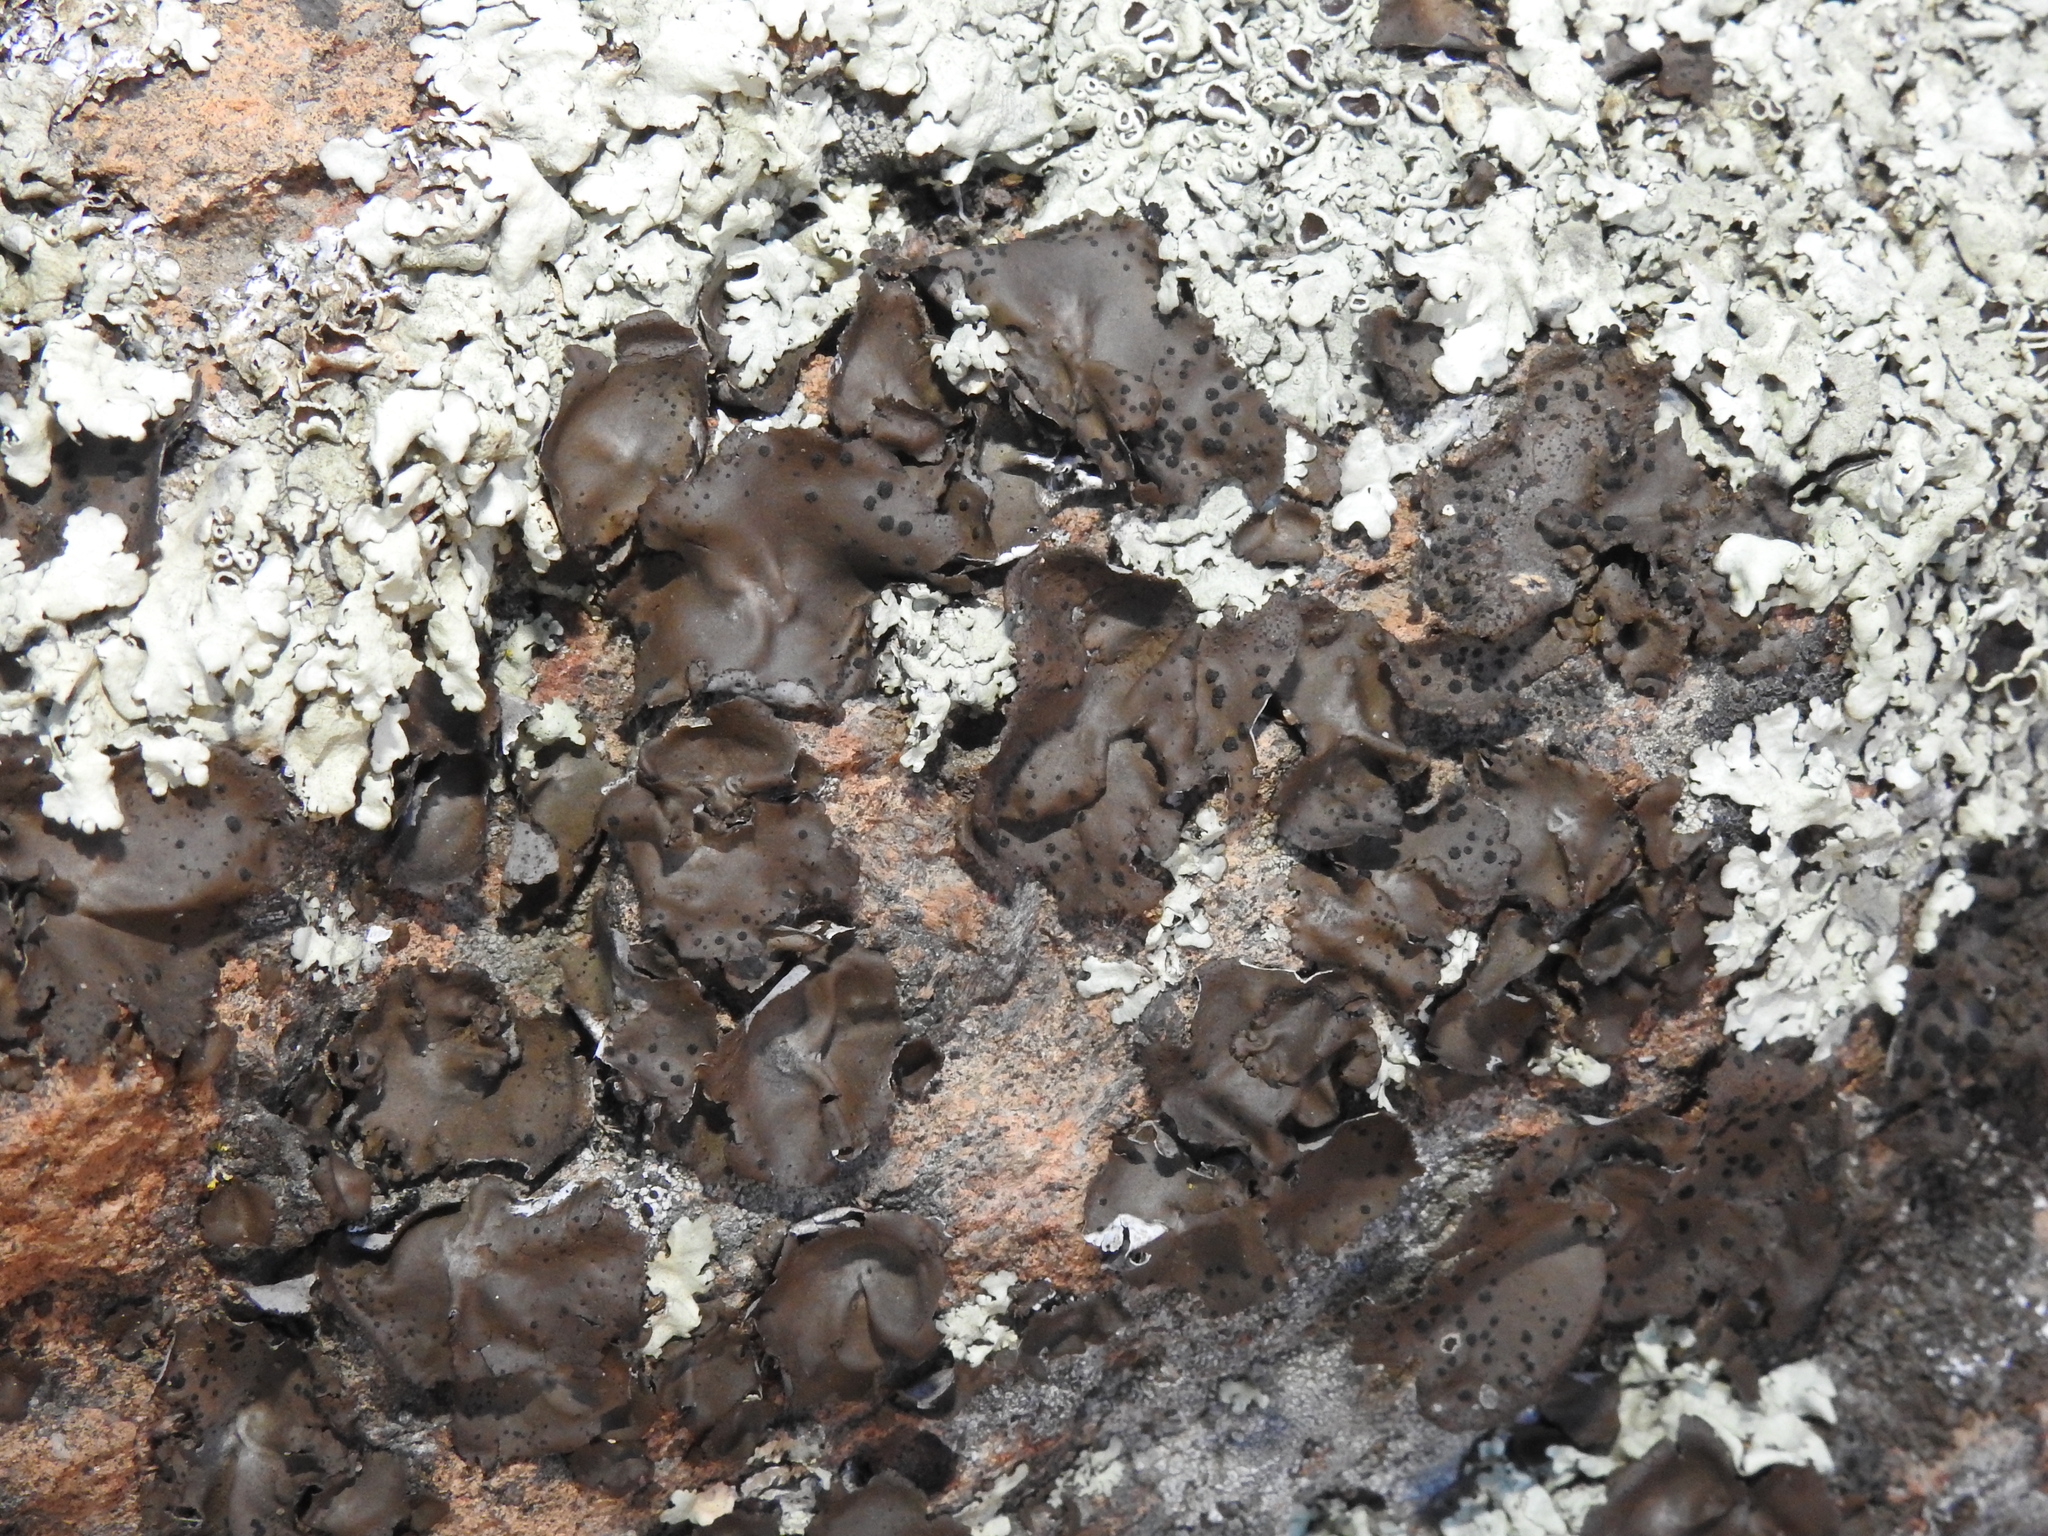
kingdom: Fungi
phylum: Ascomycota
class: Lecanoromycetes
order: Umbilicariales
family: Umbilicariaceae
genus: Umbilicaria
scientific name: Umbilicaria phaea
